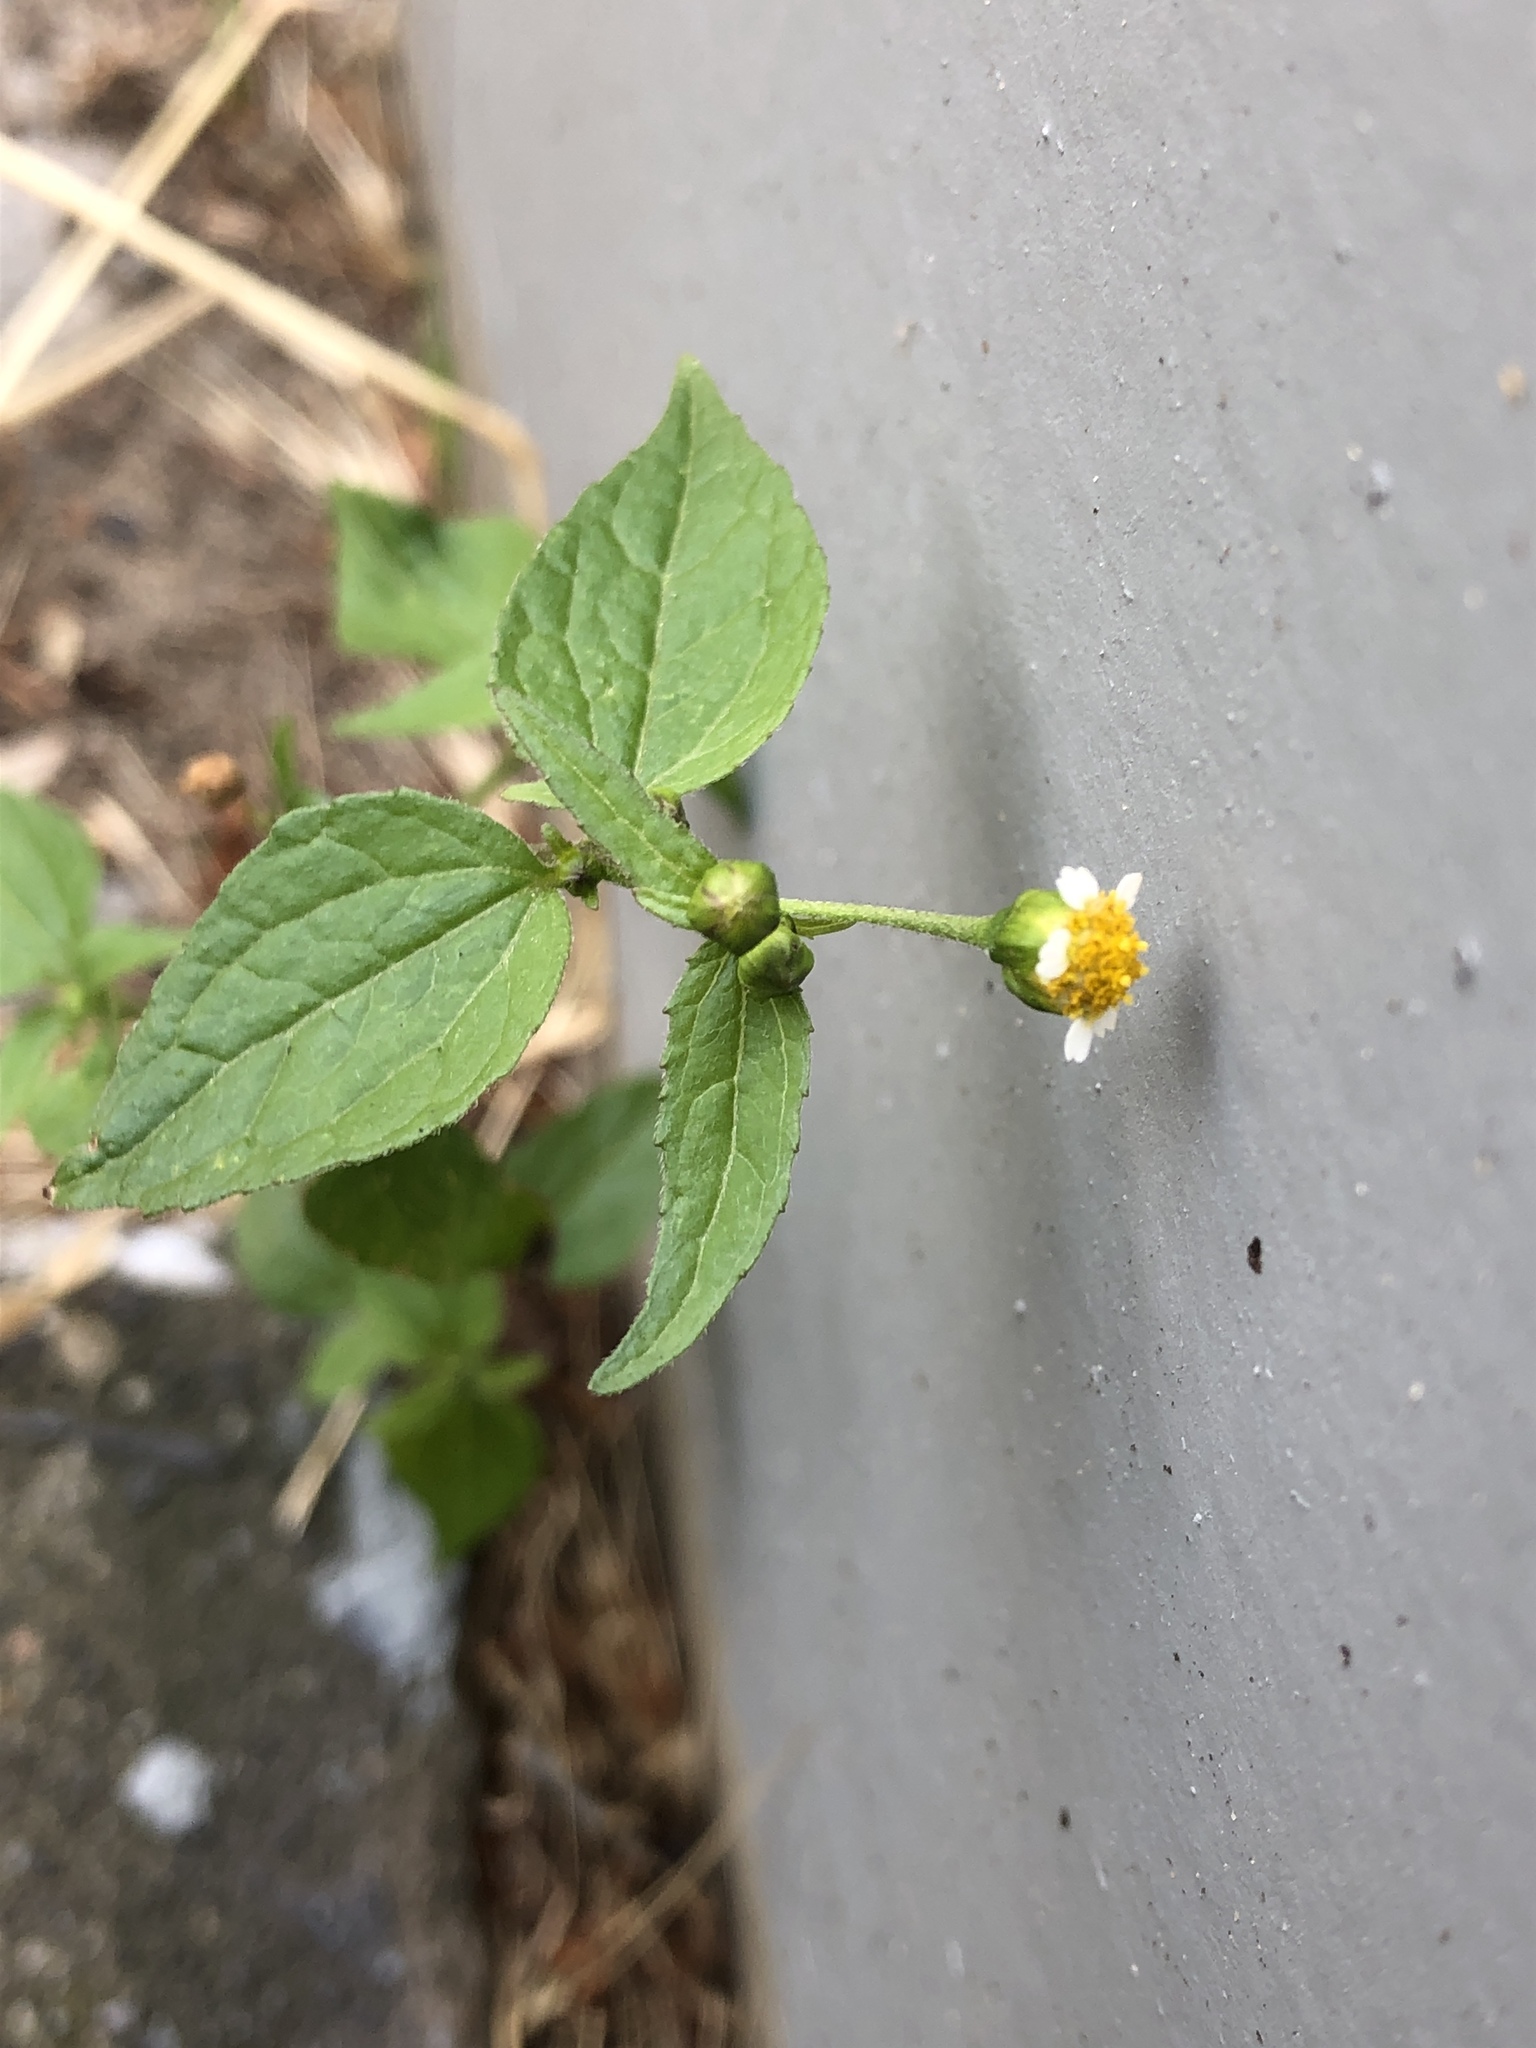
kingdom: Plantae
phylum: Tracheophyta
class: Magnoliopsida
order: Asterales
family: Asteraceae
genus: Galinsoga
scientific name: Galinsoga parviflora
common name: Gallant soldier
